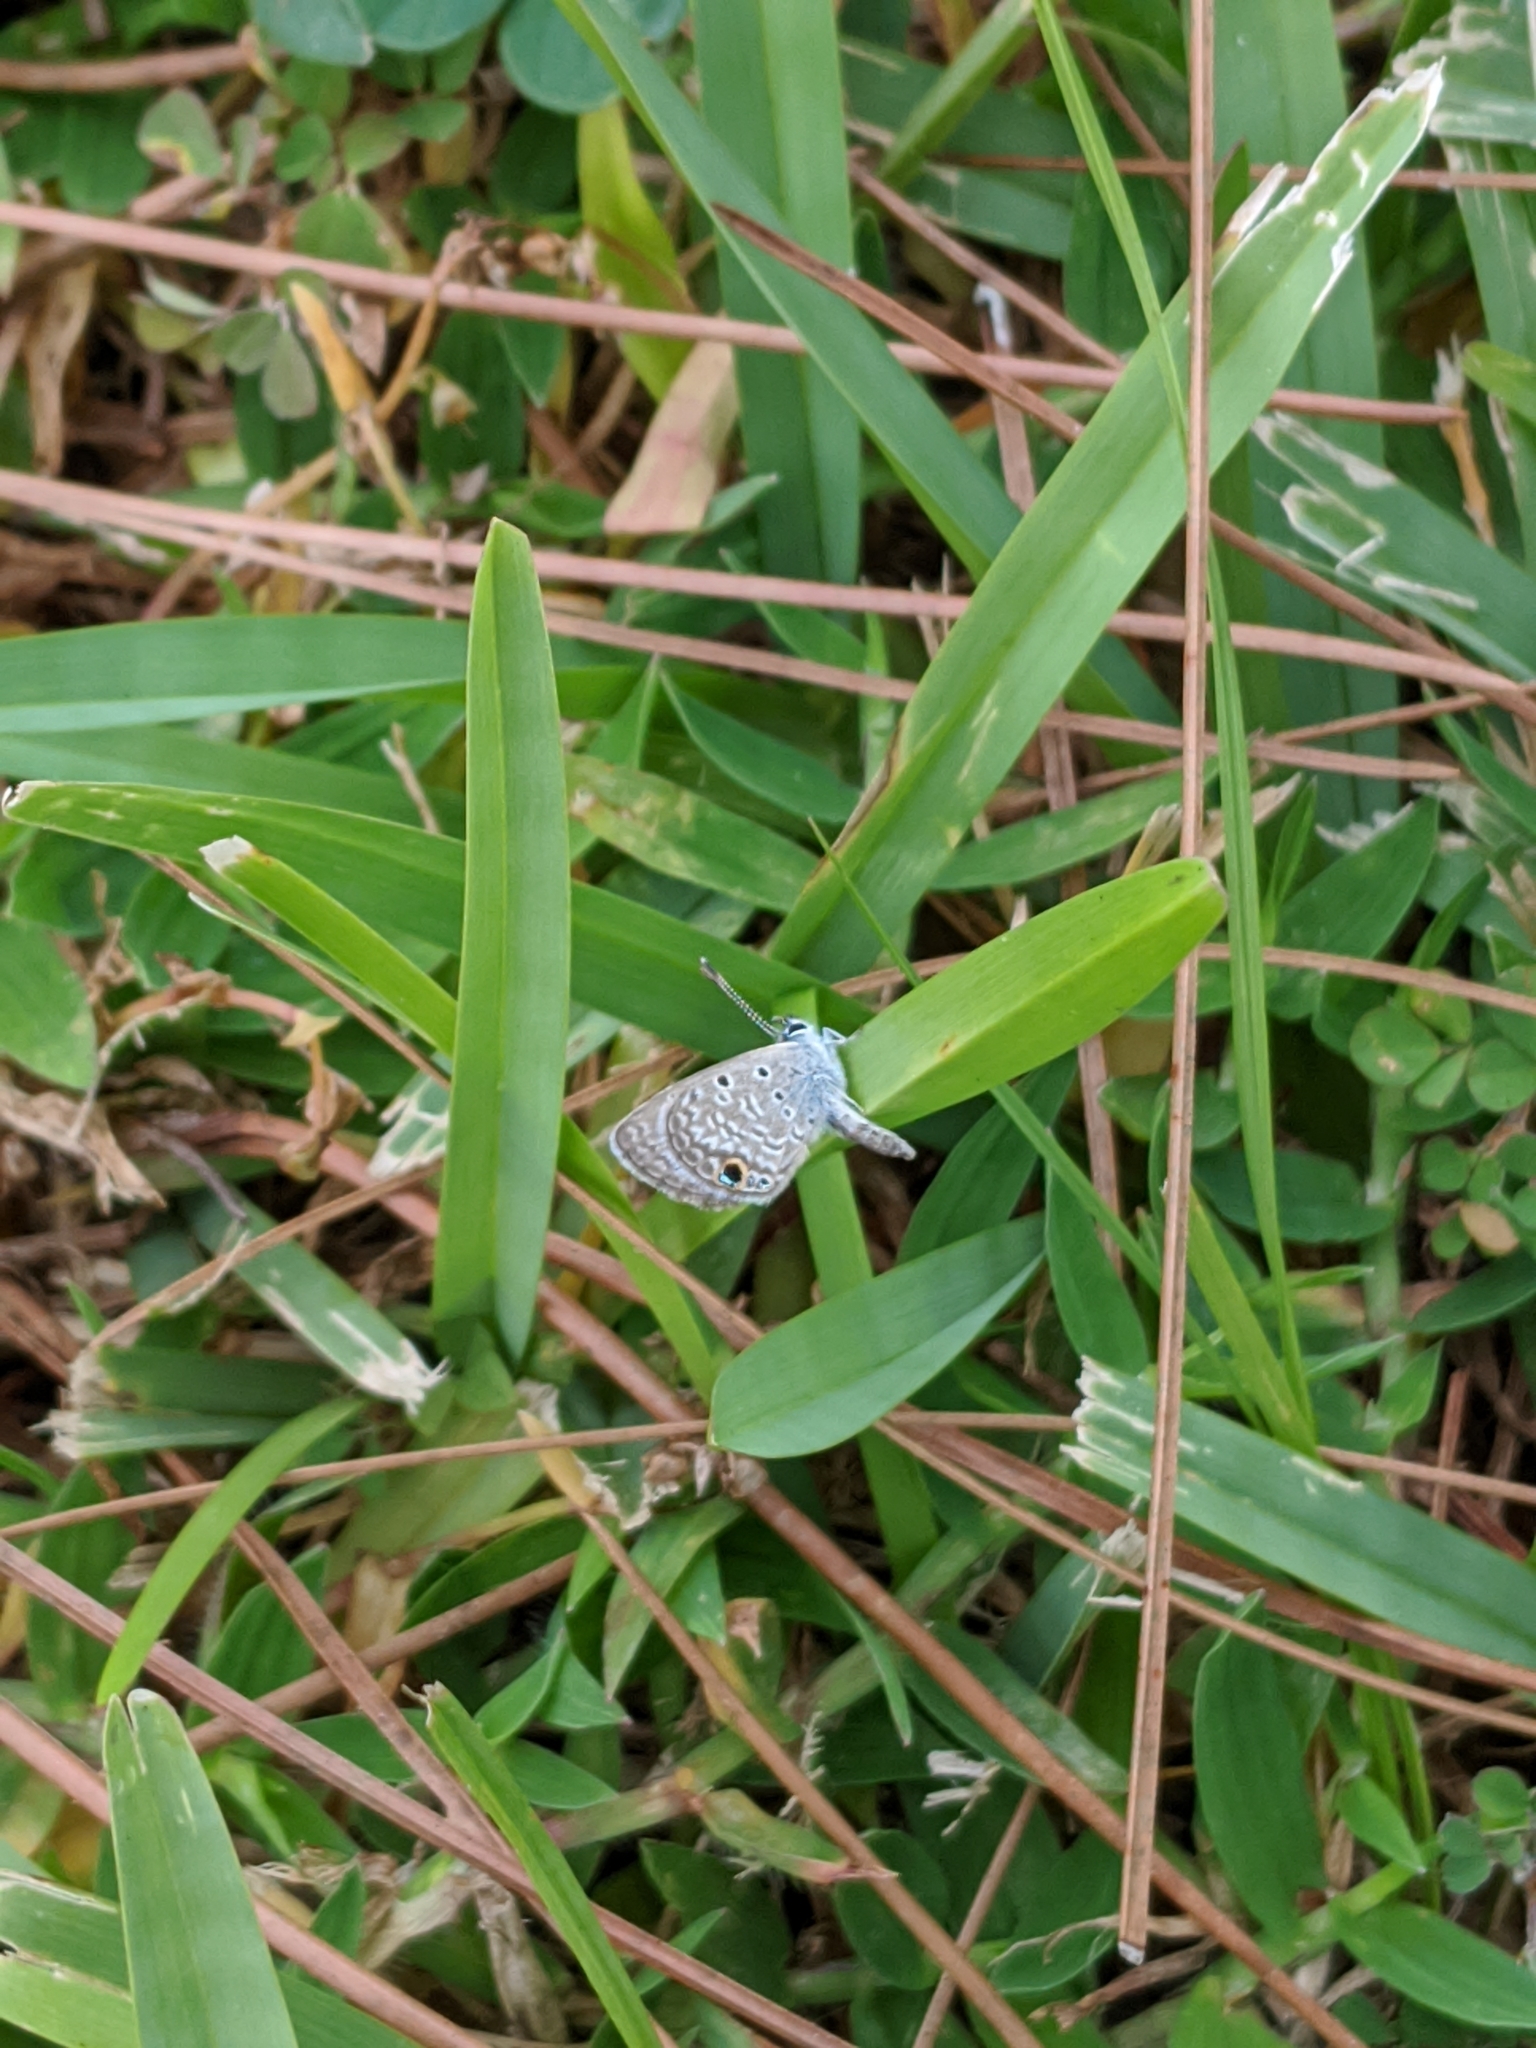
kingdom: Animalia
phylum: Arthropoda
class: Insecta
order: Lepidoptera
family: Lycaenidae
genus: Hemiargus
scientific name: Hemiargus ceraunus
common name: Ceraunus blue
